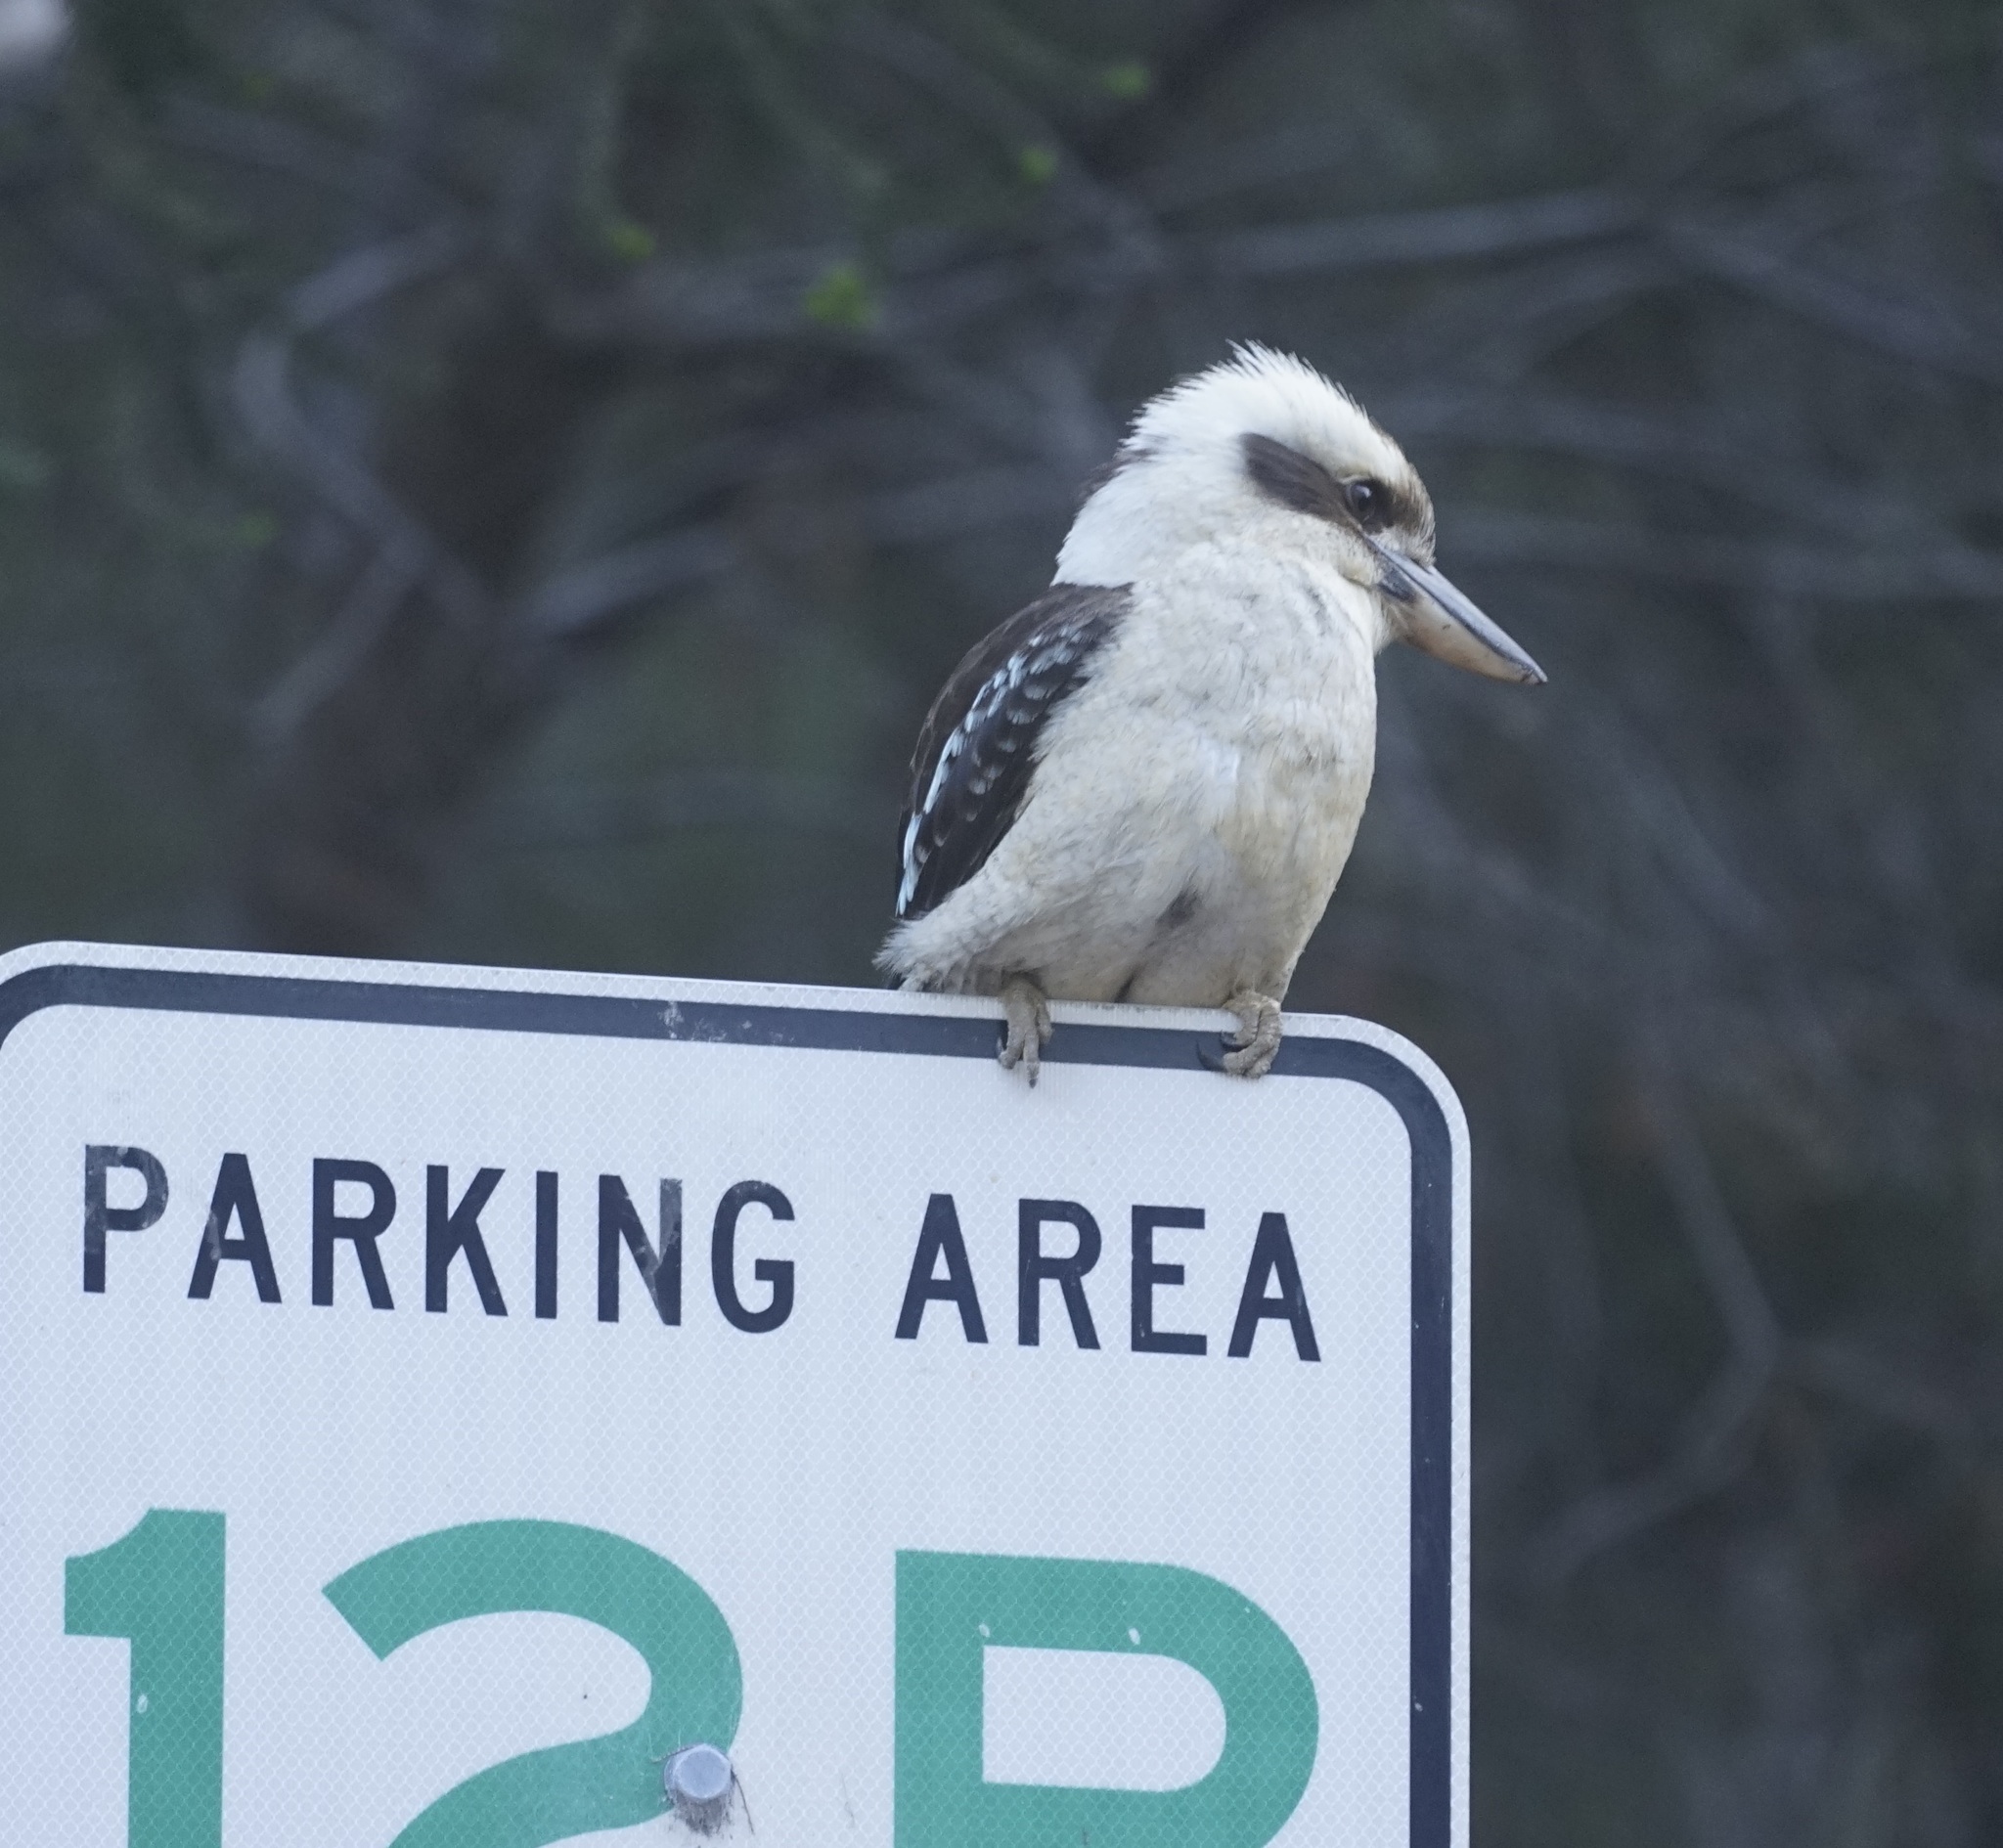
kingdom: Animalia
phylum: Chordata
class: Aves
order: Coraciiformes
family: Alcedinidae
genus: Dacelo
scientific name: Dacelo novaeguineae
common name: Laughing kookaburra
